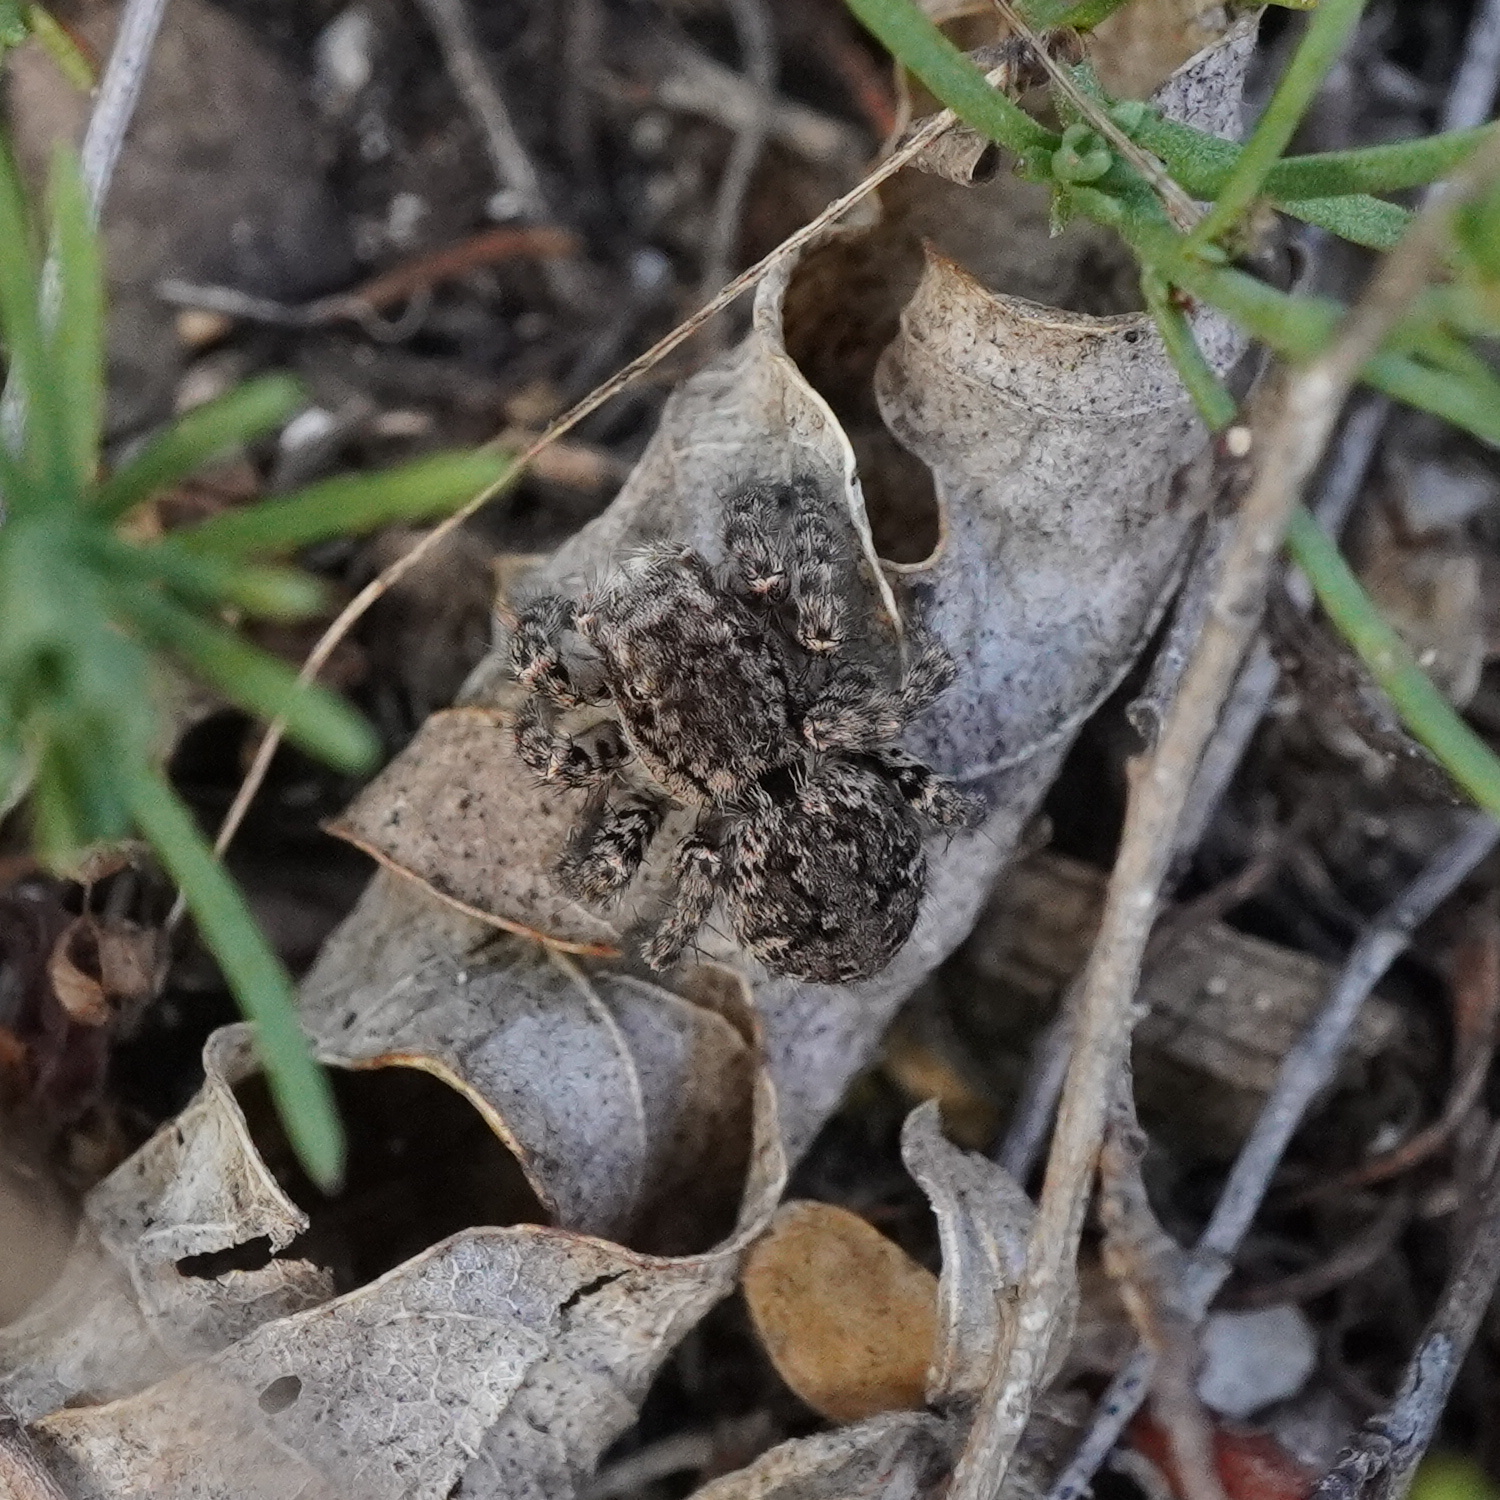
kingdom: Animalia
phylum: Arthropoda
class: Arachnida
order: Araneae
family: Salticidae
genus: Asianellus
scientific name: Asianellus festivus
